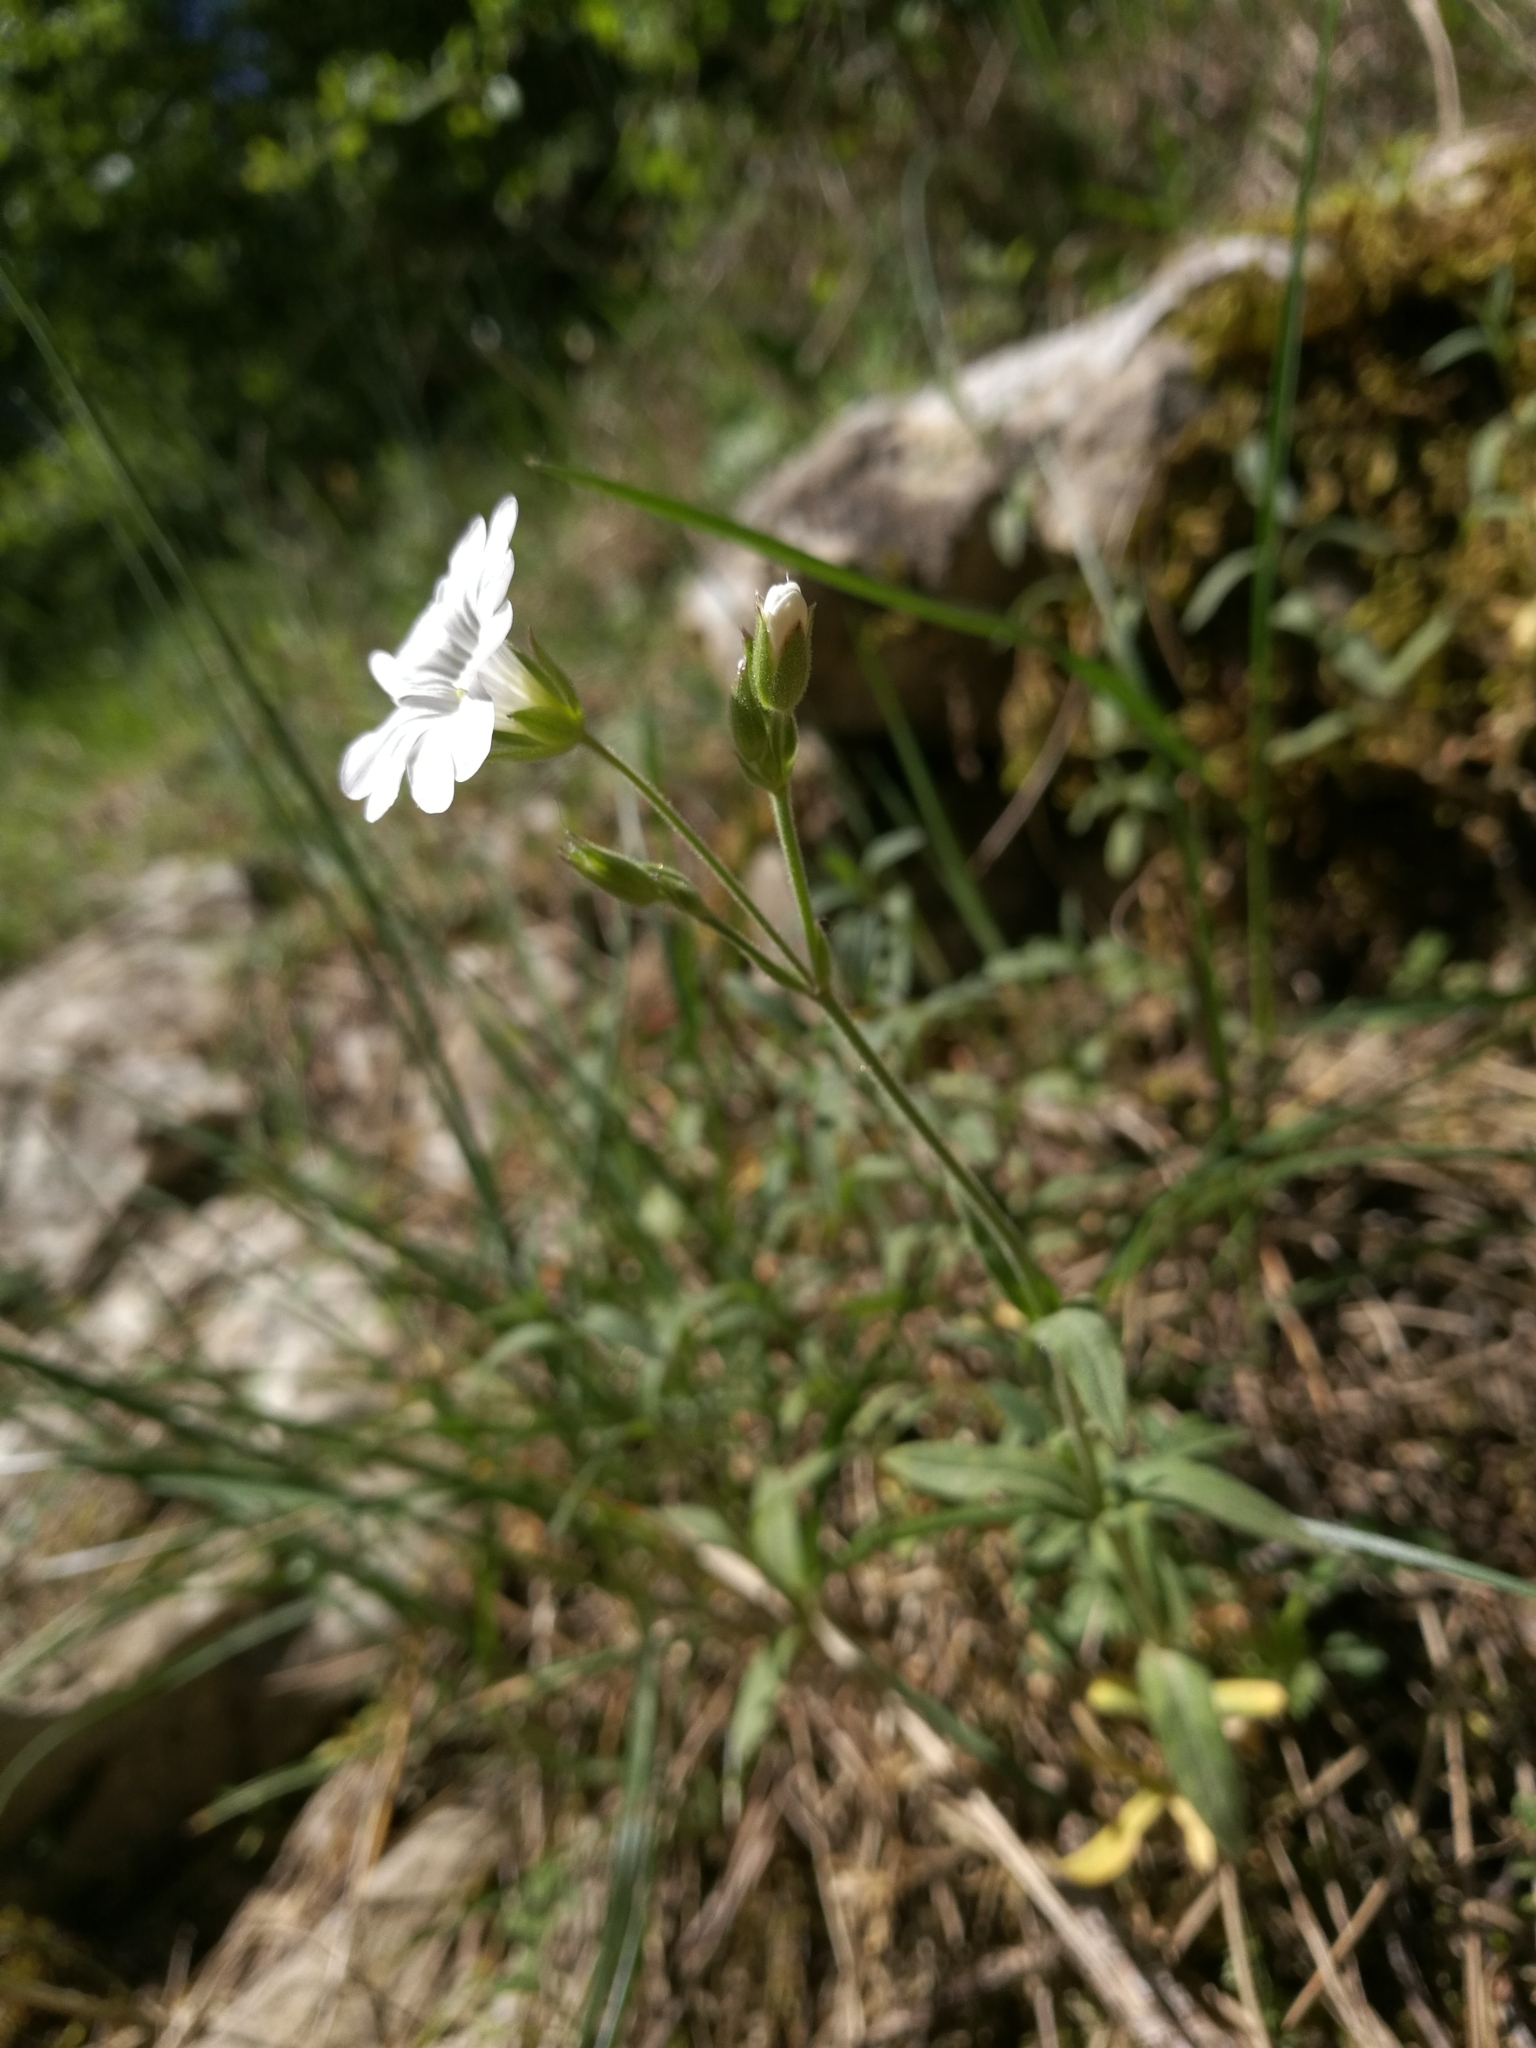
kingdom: Plantae
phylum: Tracheophyta
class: Magnoliopsida
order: Caryophyllales
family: Caryophyllaceae
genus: Cerastium
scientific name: Cerastium arvense
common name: Field mouse-ear
